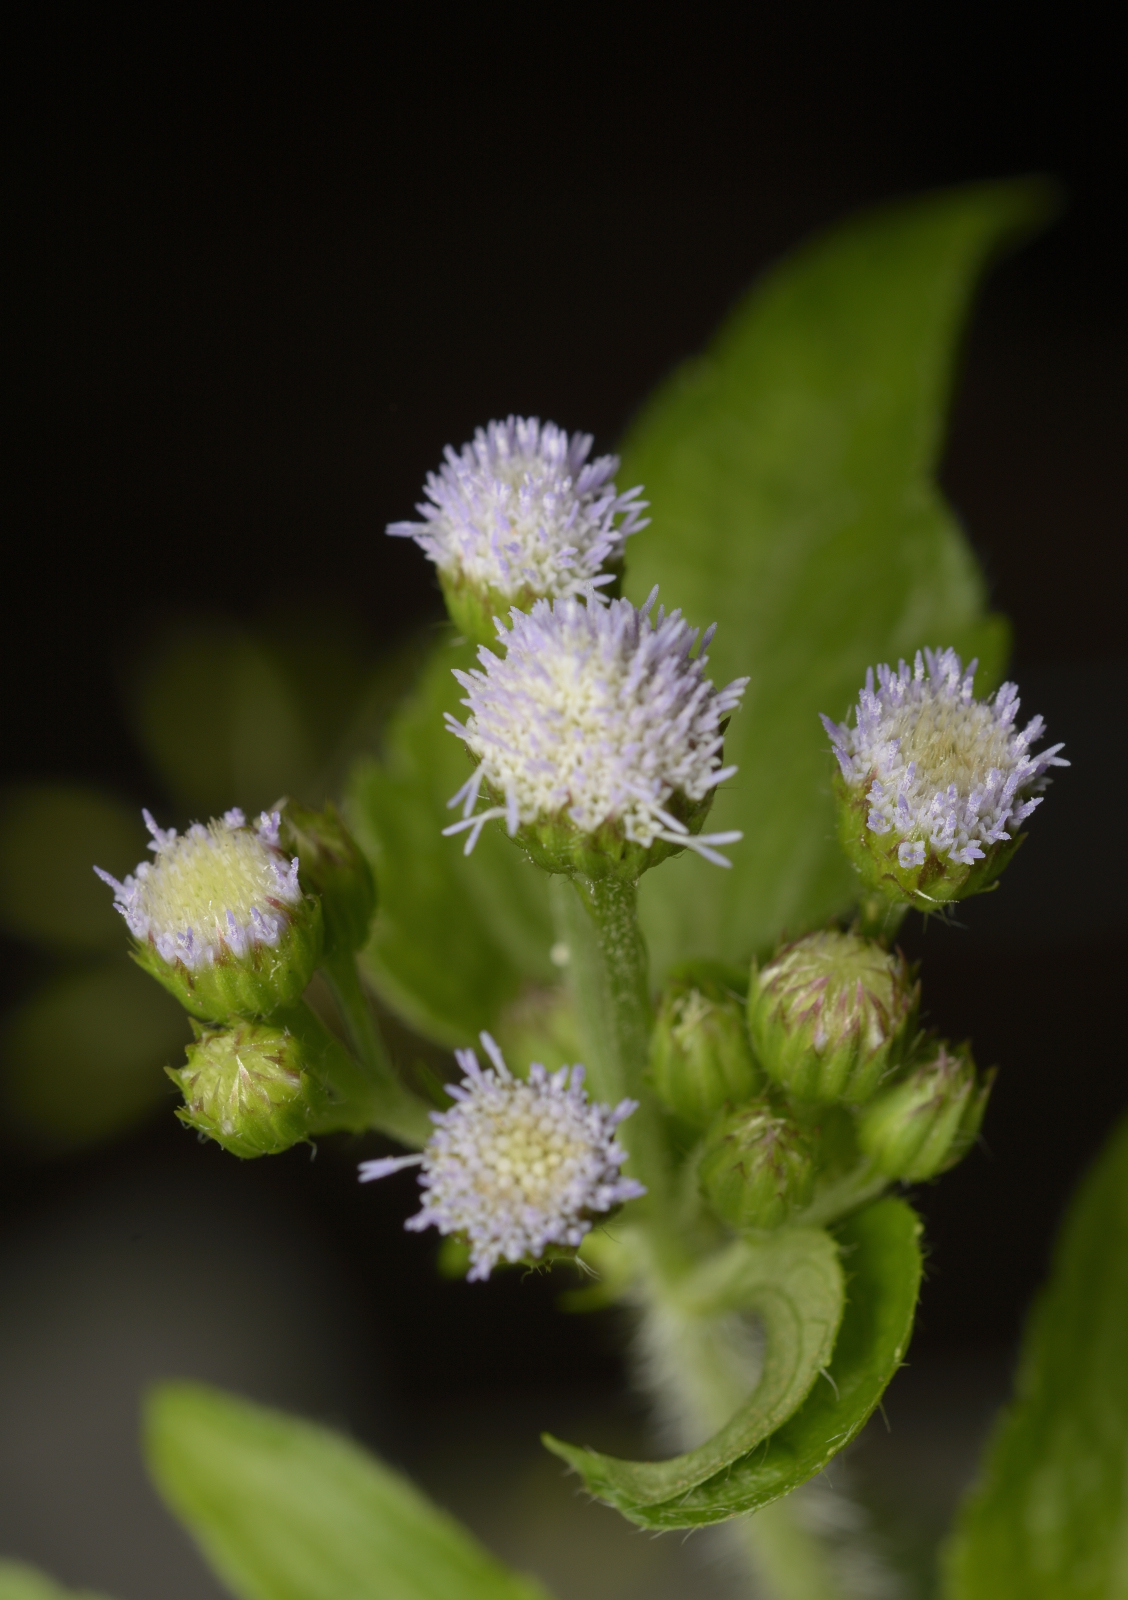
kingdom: Plantae
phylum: Tracheophyta
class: Magnoliopsida
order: Asterales
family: Asteraceae
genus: Ageratum
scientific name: Ageratum conyzoides
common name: Tropical whiteweed
